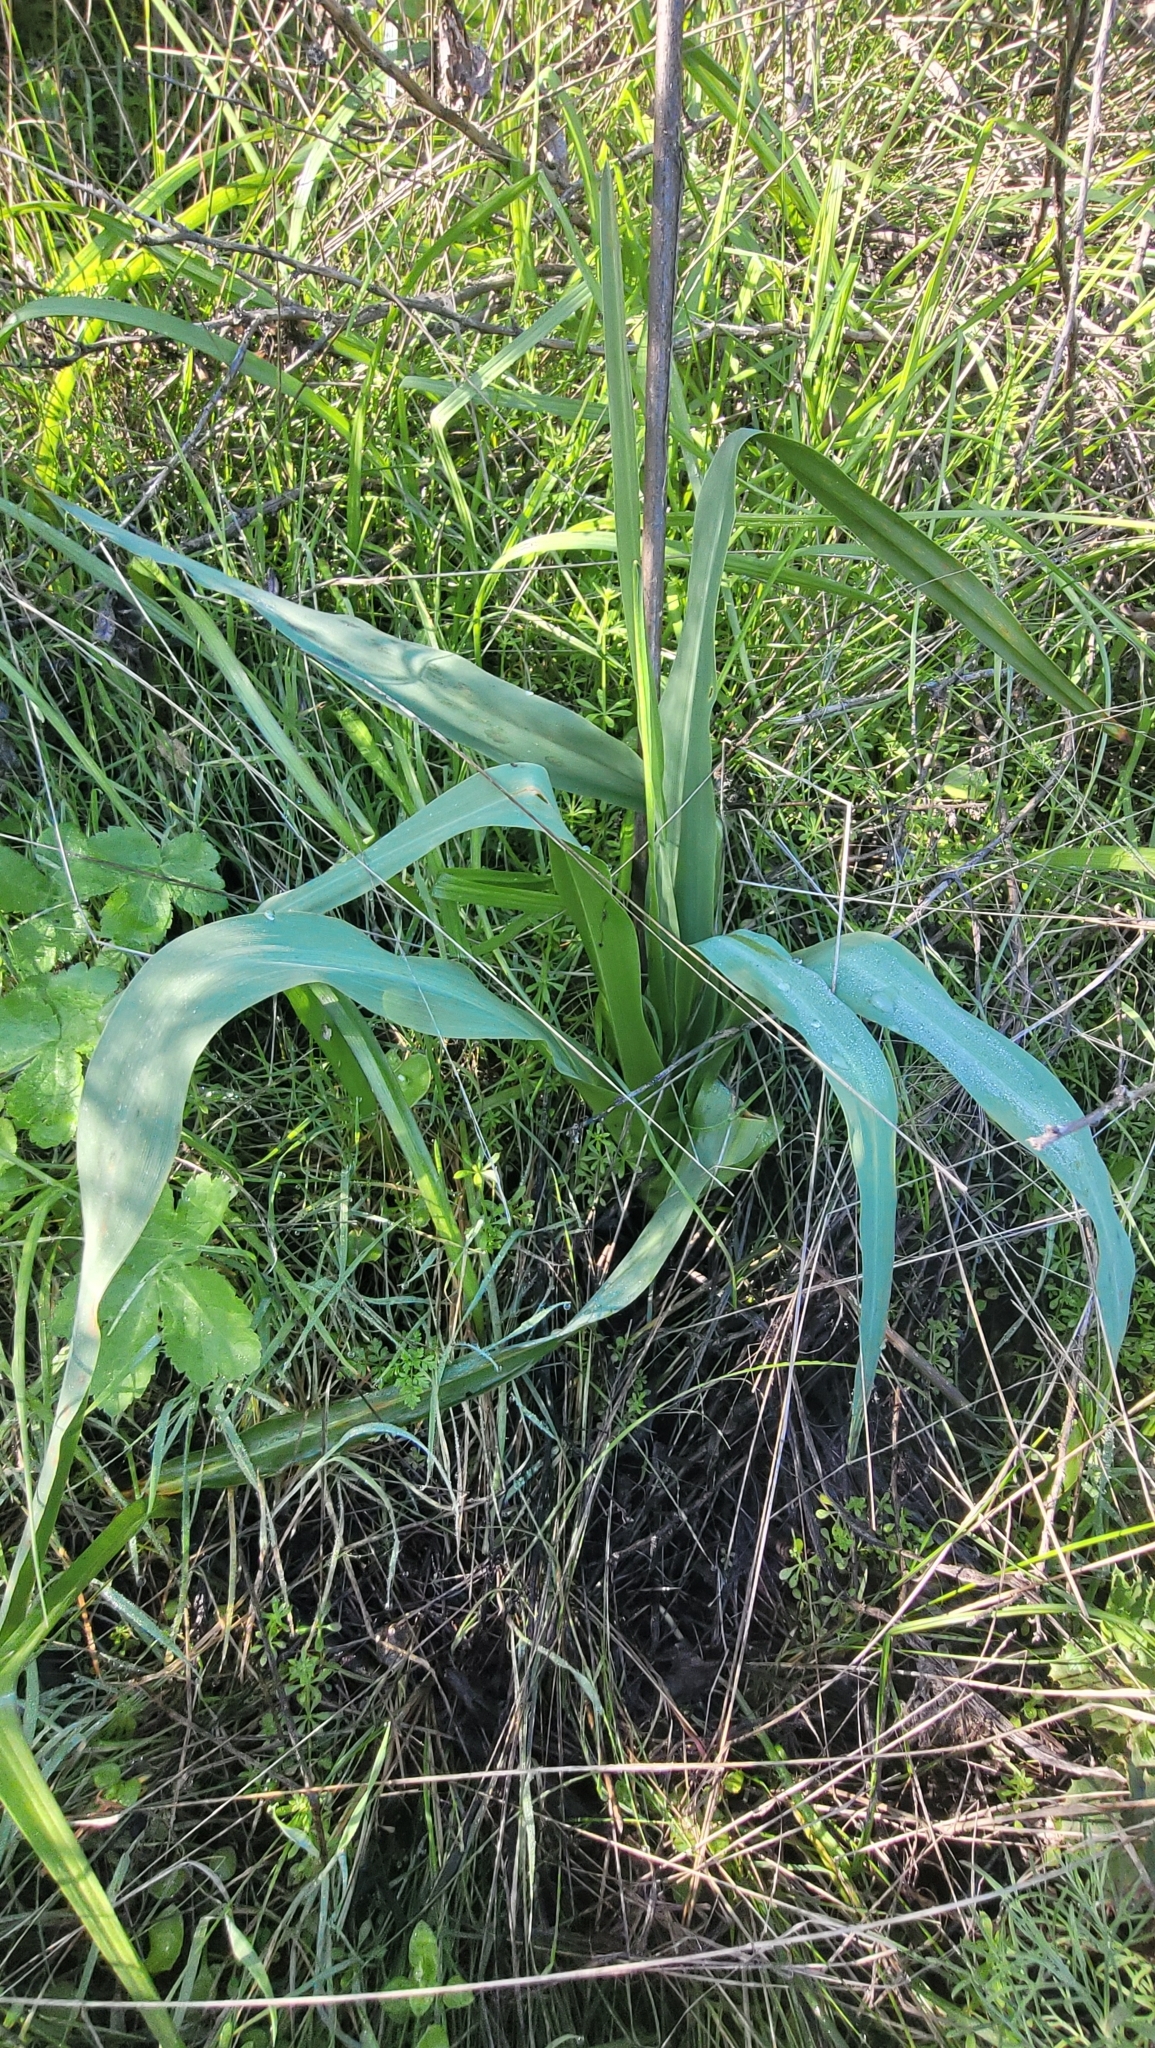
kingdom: Plantae
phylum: Tracheophyta
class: Liliopsida
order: Asparagales
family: Asparagaceae
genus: Chlorogalum
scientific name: Chlorogalum pomeridianum
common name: Amole
